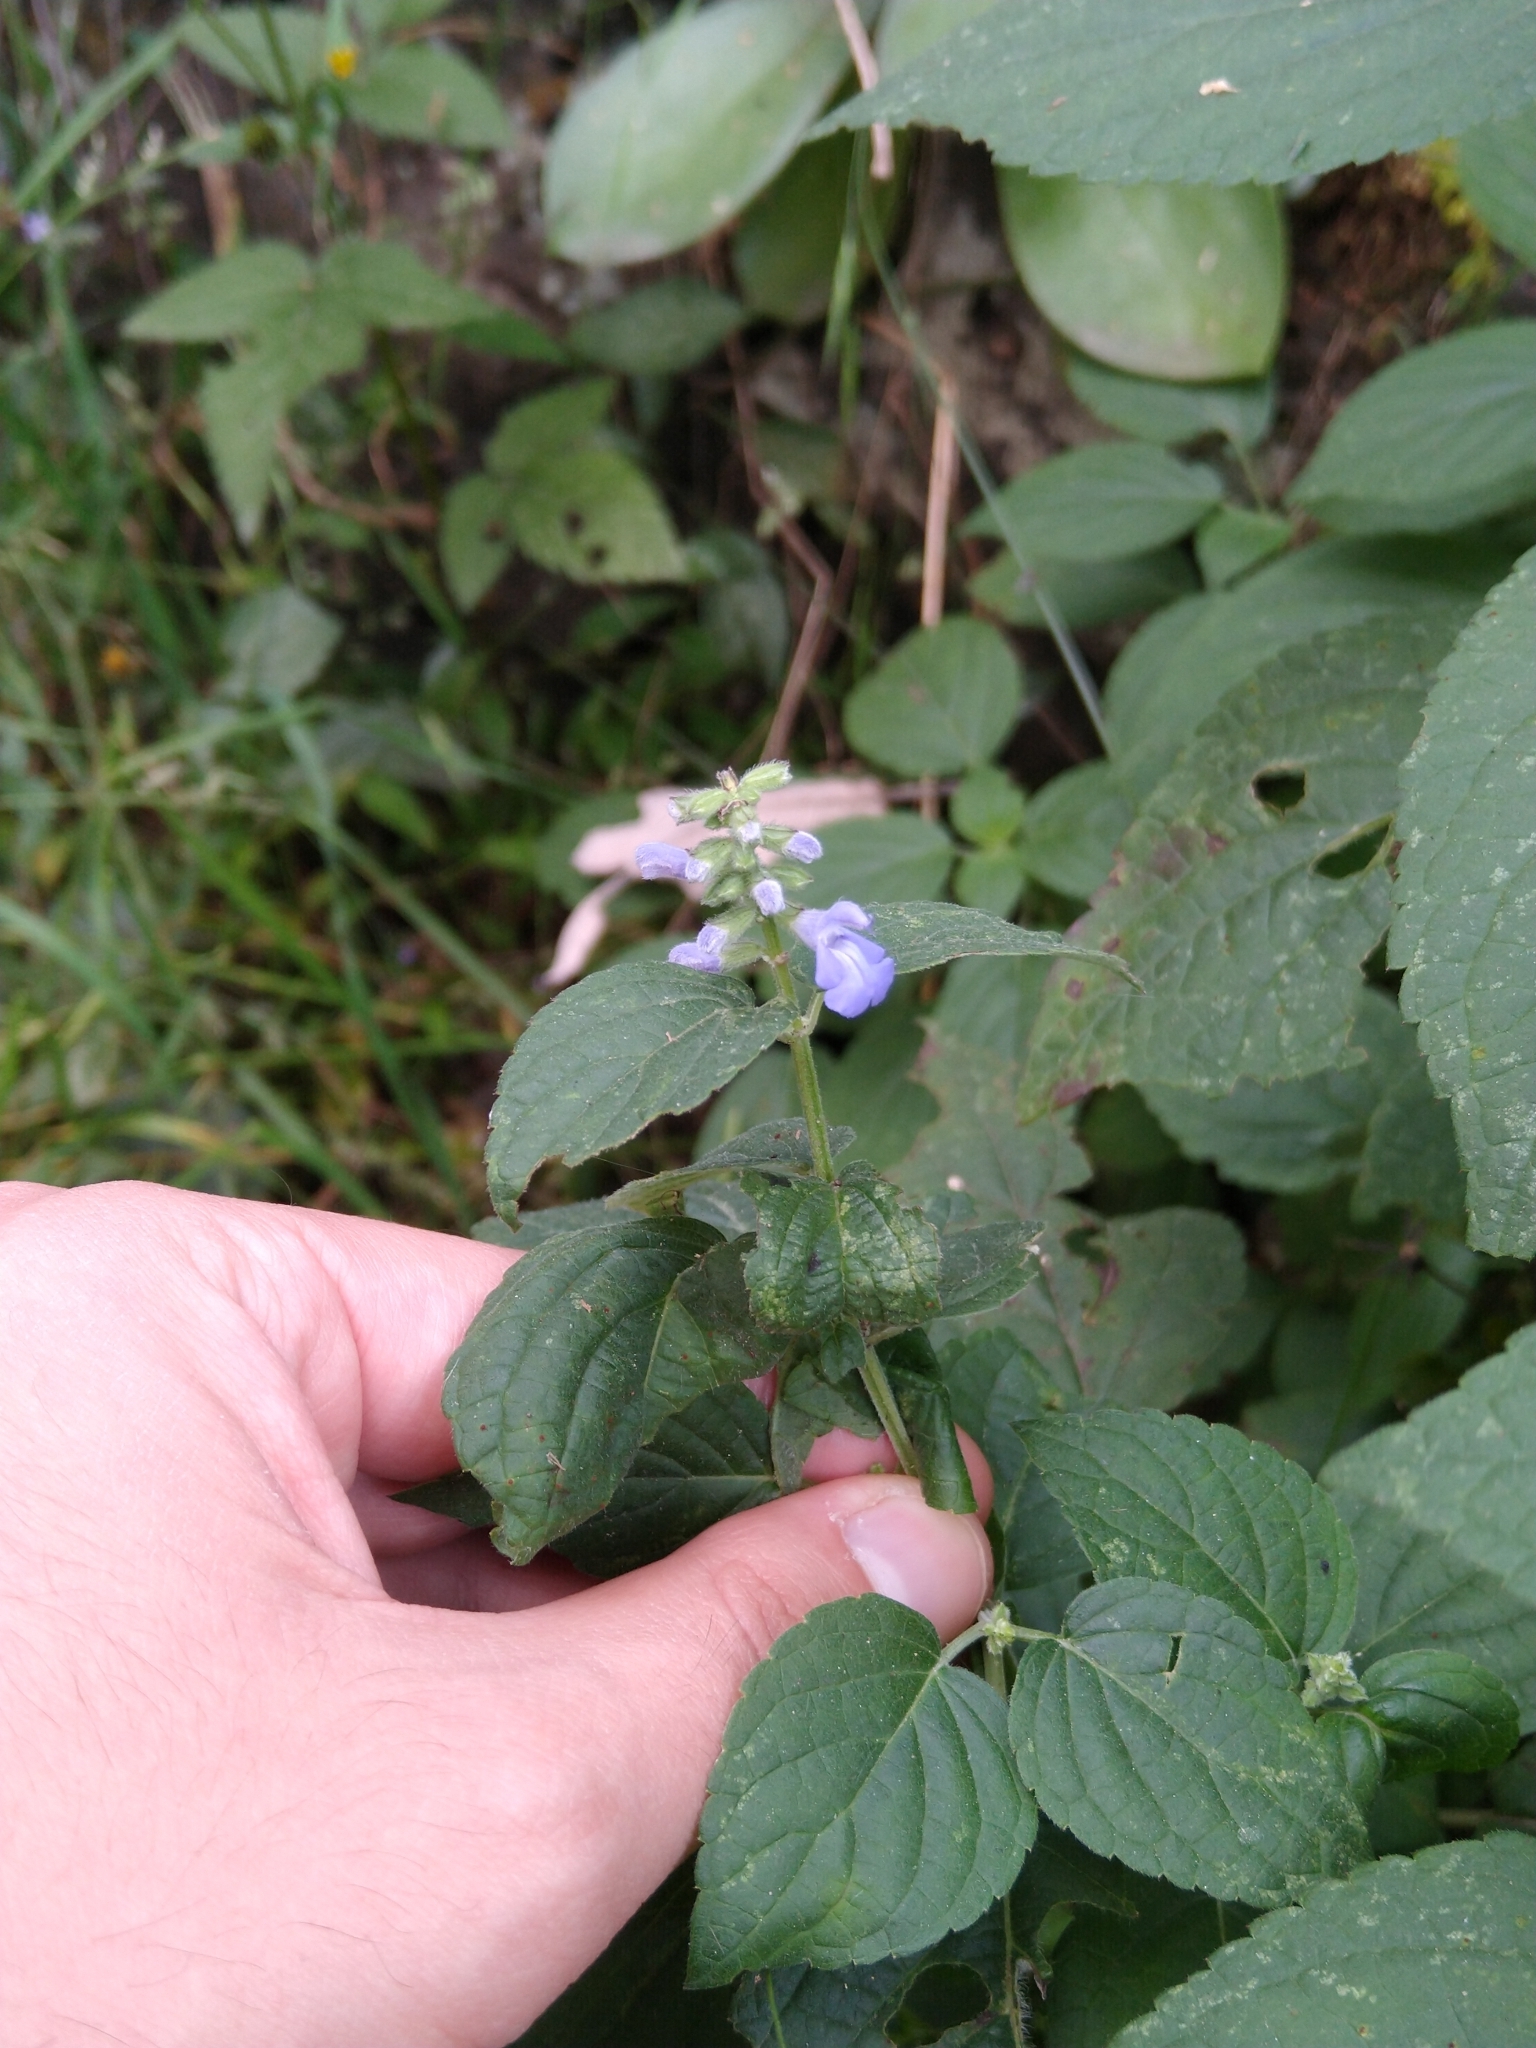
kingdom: Plantae
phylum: Tracheophyta
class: Magnoliopsida
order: Lamiales
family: Lamiaceae
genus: Salvia
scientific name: Salvia polystachia
